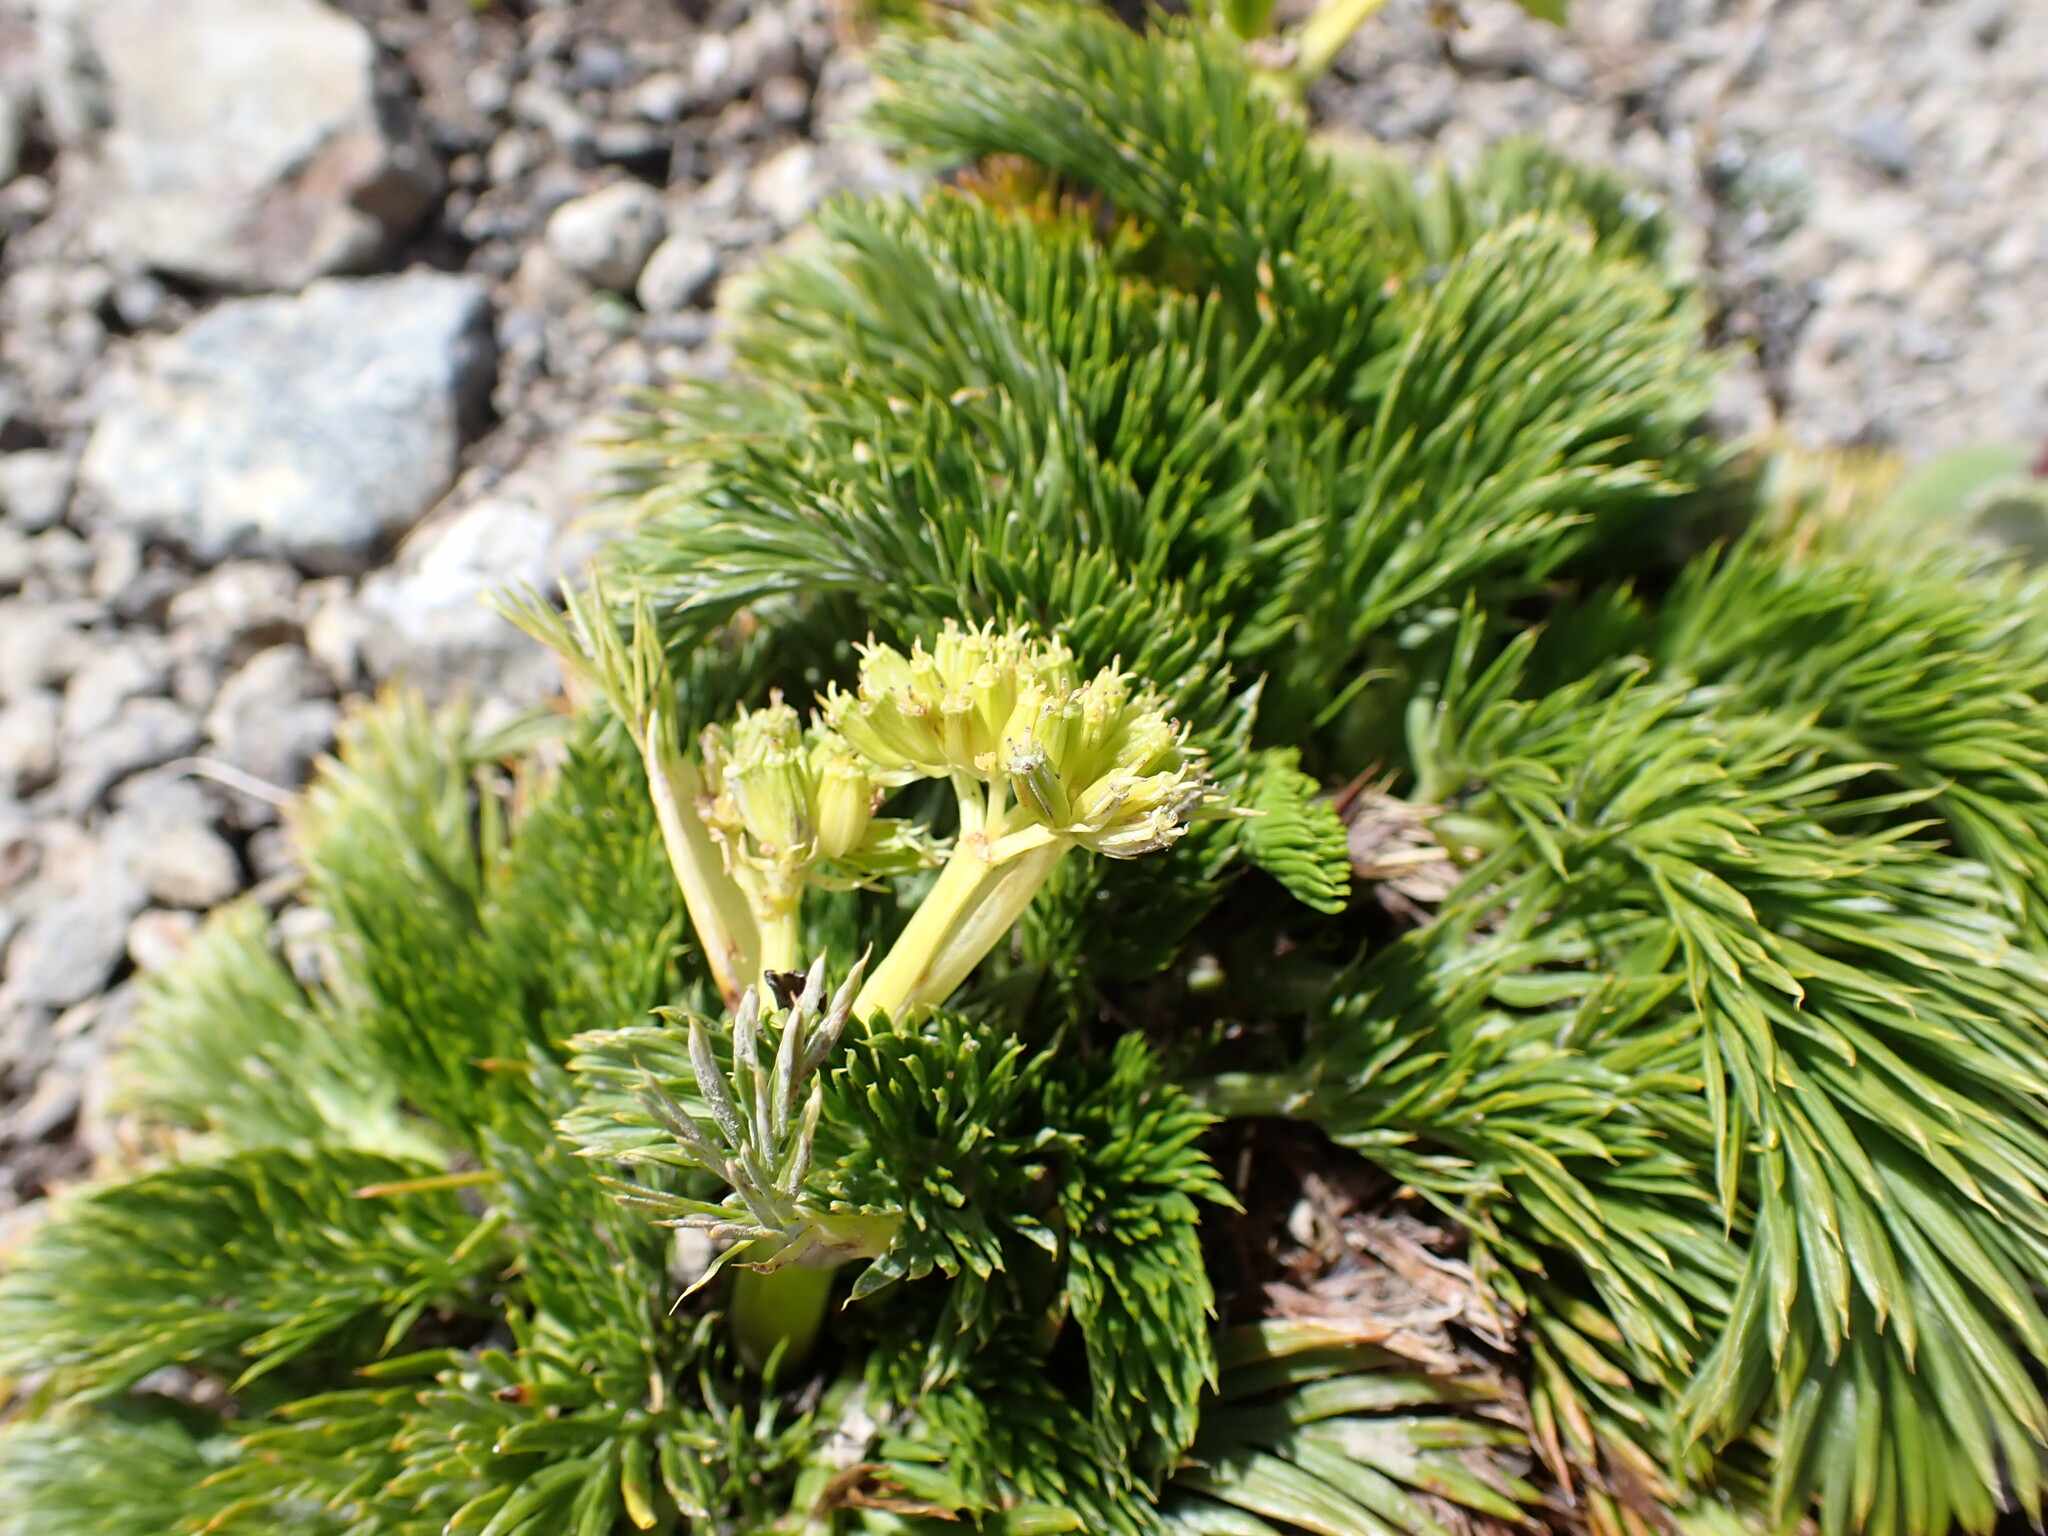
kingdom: Plantae
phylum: Tracheophyta
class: Magnoliopsida
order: Apiales
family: Apiaceae
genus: Aciphylla
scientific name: Aciphylla dissecta
